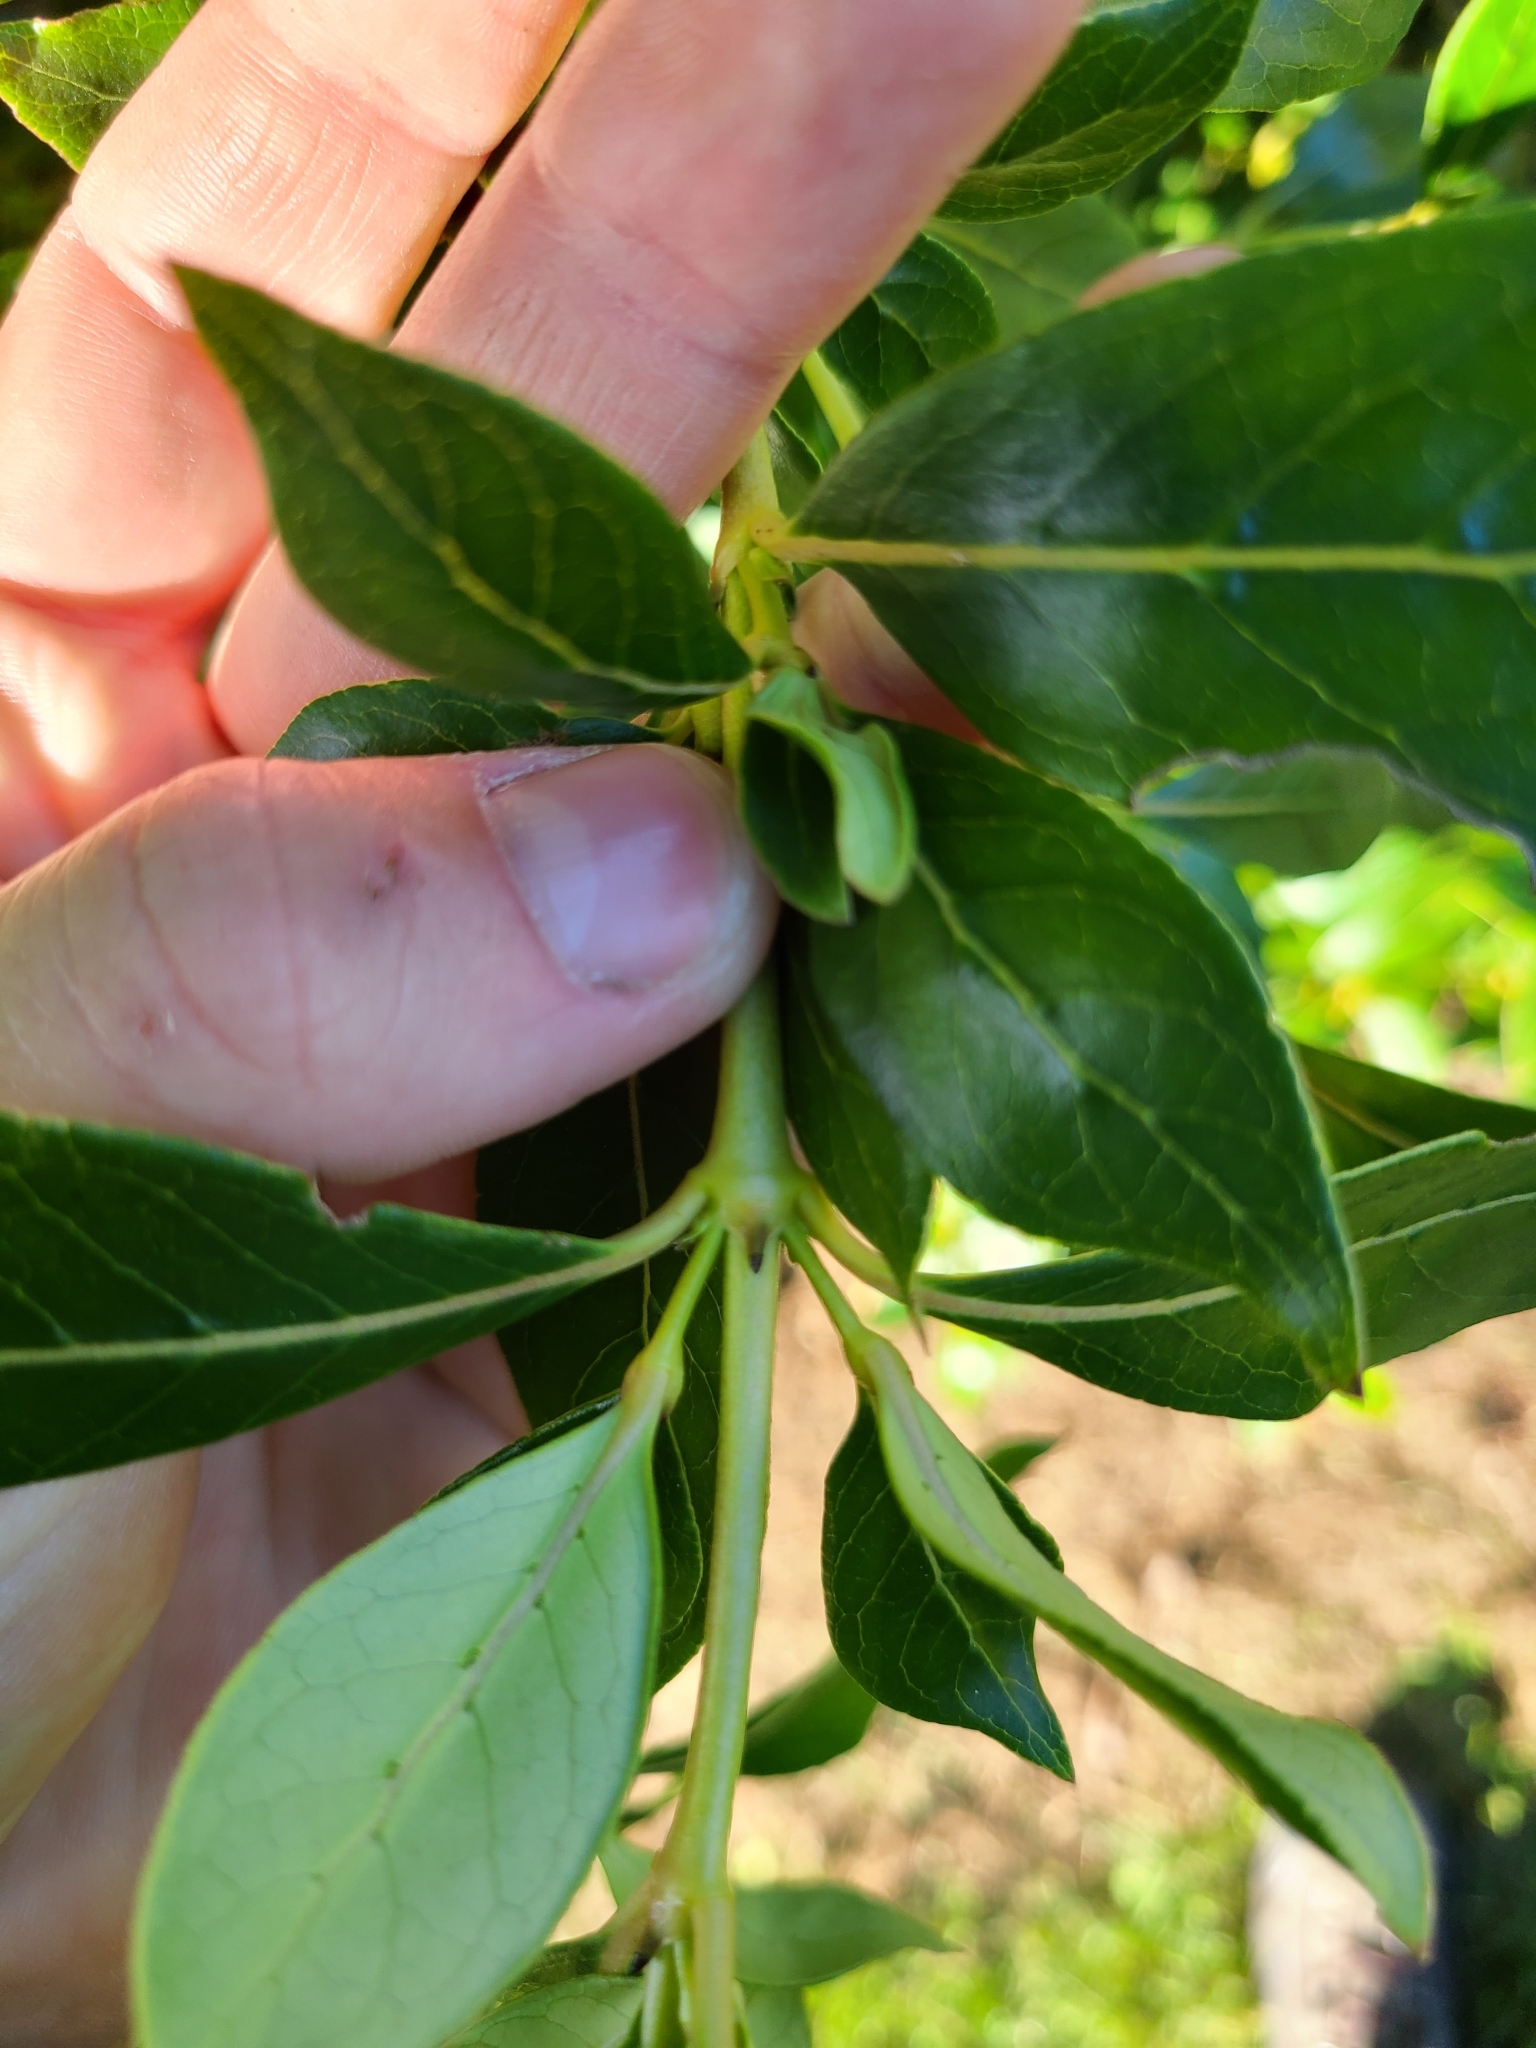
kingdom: Plantae
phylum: Tracheophyta
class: Magnoliopsida
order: Gentianales
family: Rubiaceae
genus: Coprosma
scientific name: Coprosma robusta
